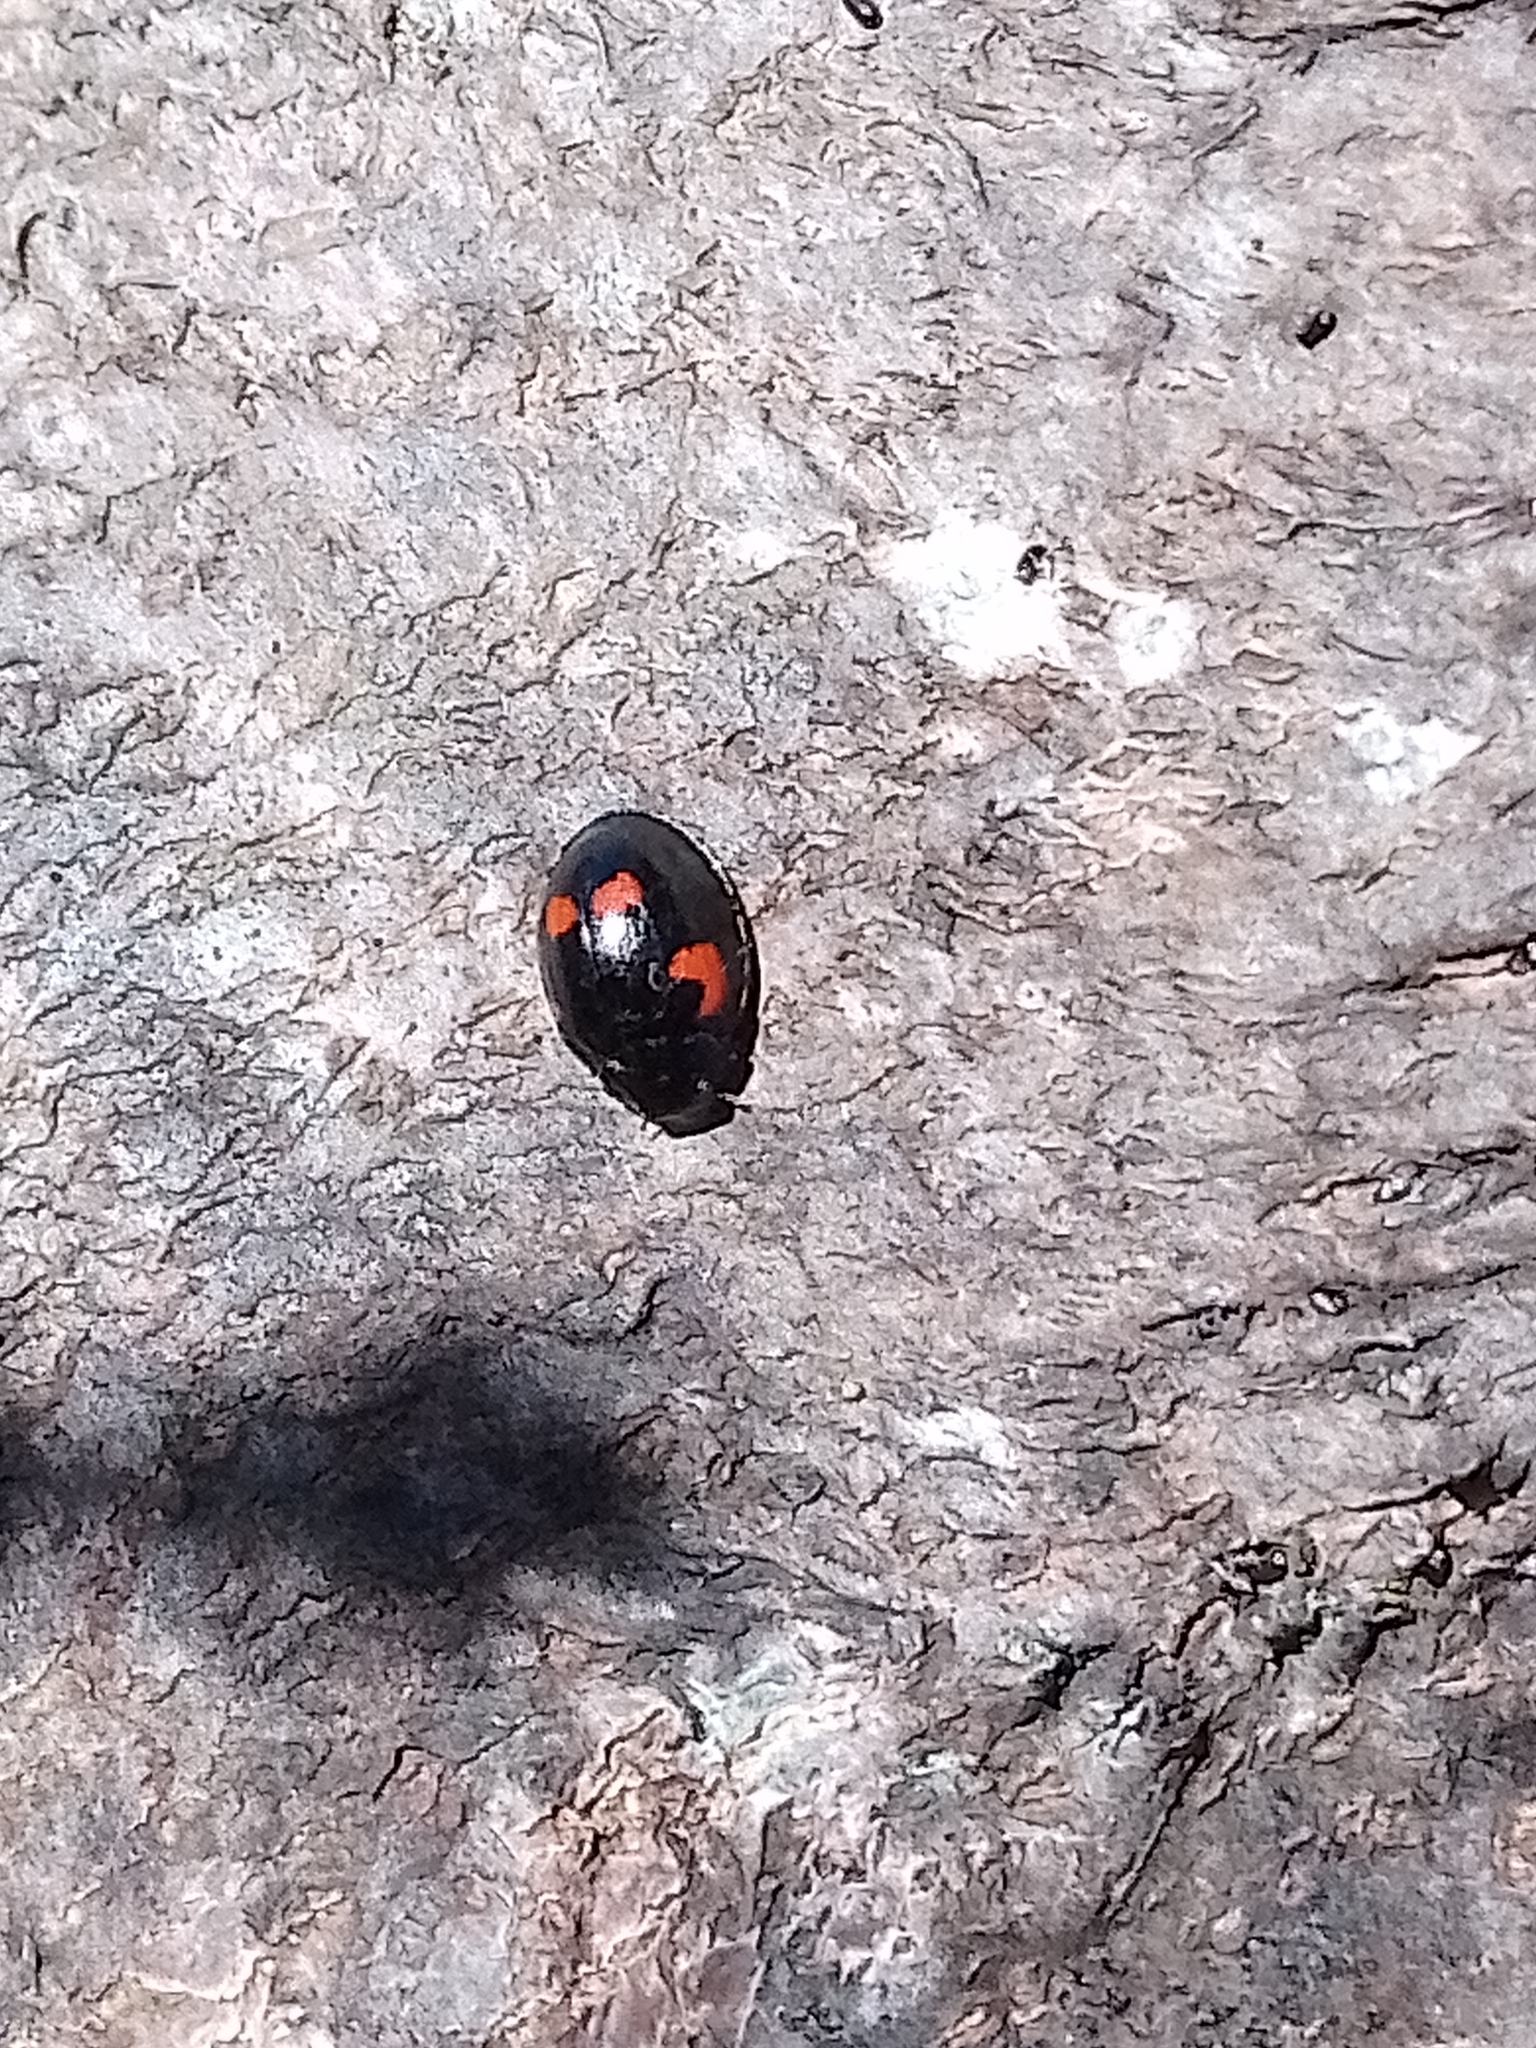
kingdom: Animalia
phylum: Arthropoda
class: Insecta
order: Coleoptera
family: Coccinellidae
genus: Brumus
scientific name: Brumus quadripustulatus
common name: Ladybird beetle
